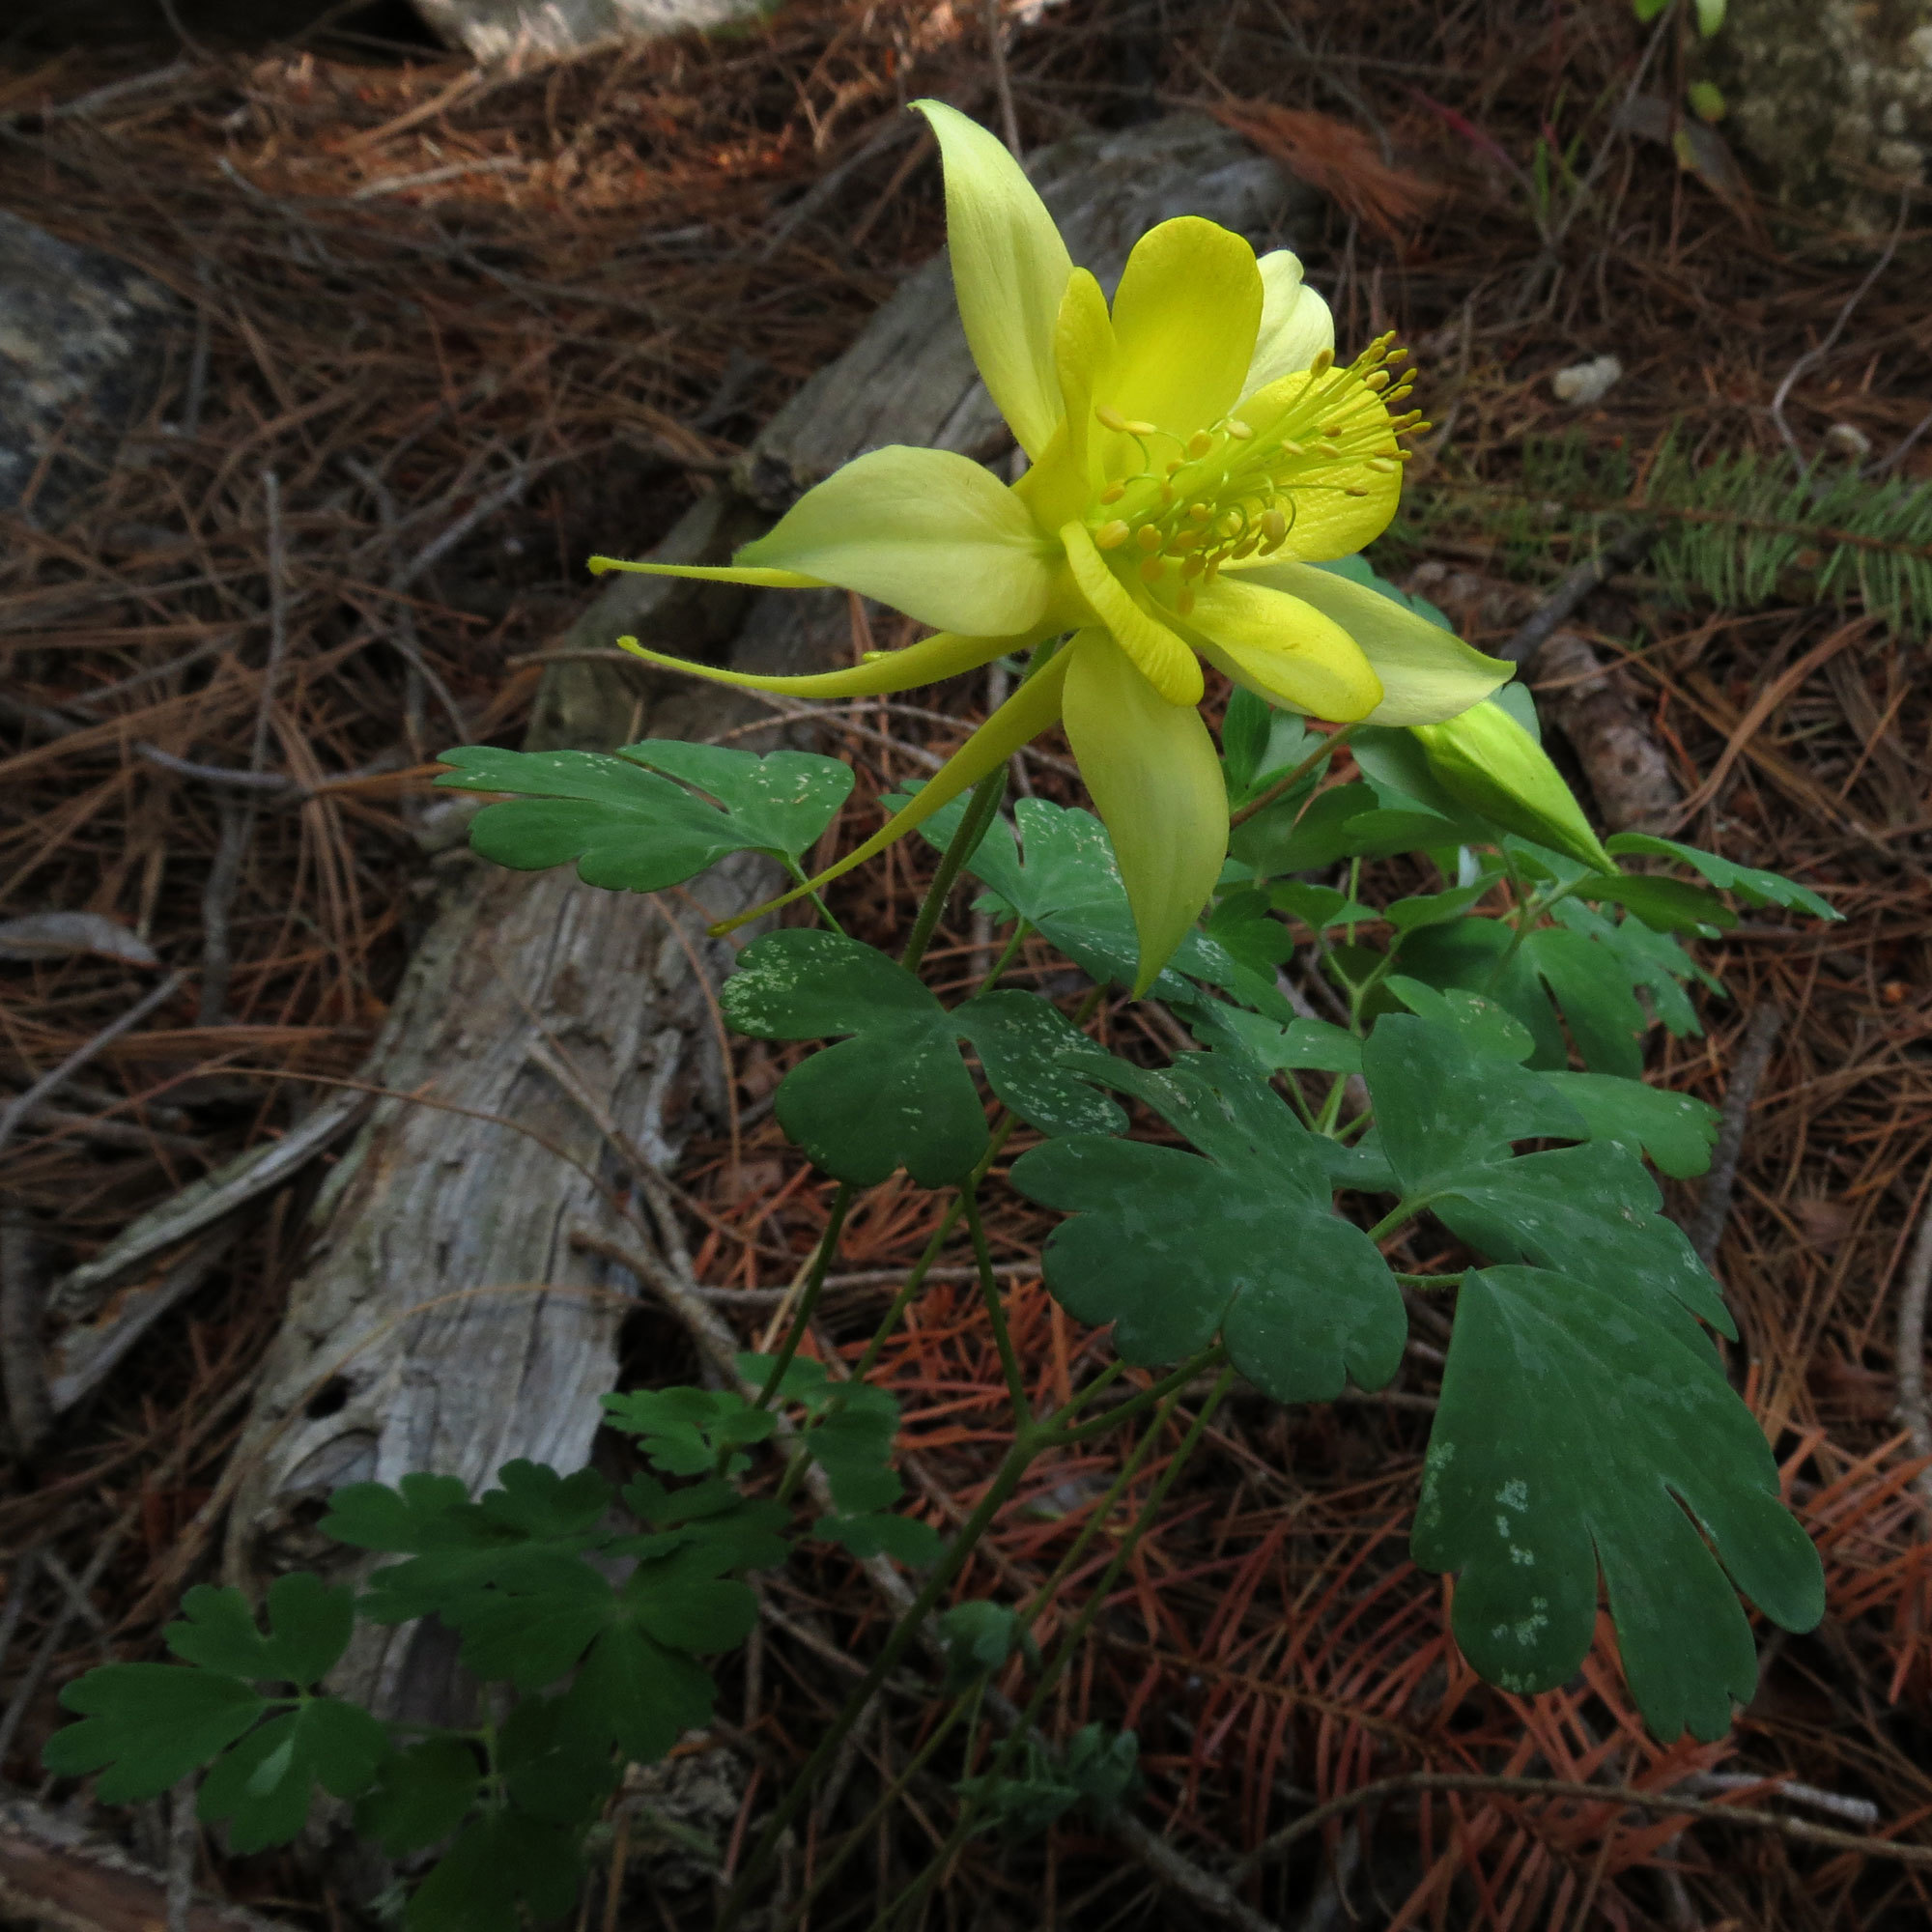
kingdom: Plantae
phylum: Tracheophyta
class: Magnoliopsida
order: Ranunculales
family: Ranunculaceae
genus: Aquilegia
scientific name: Aquilegia chrysantha
